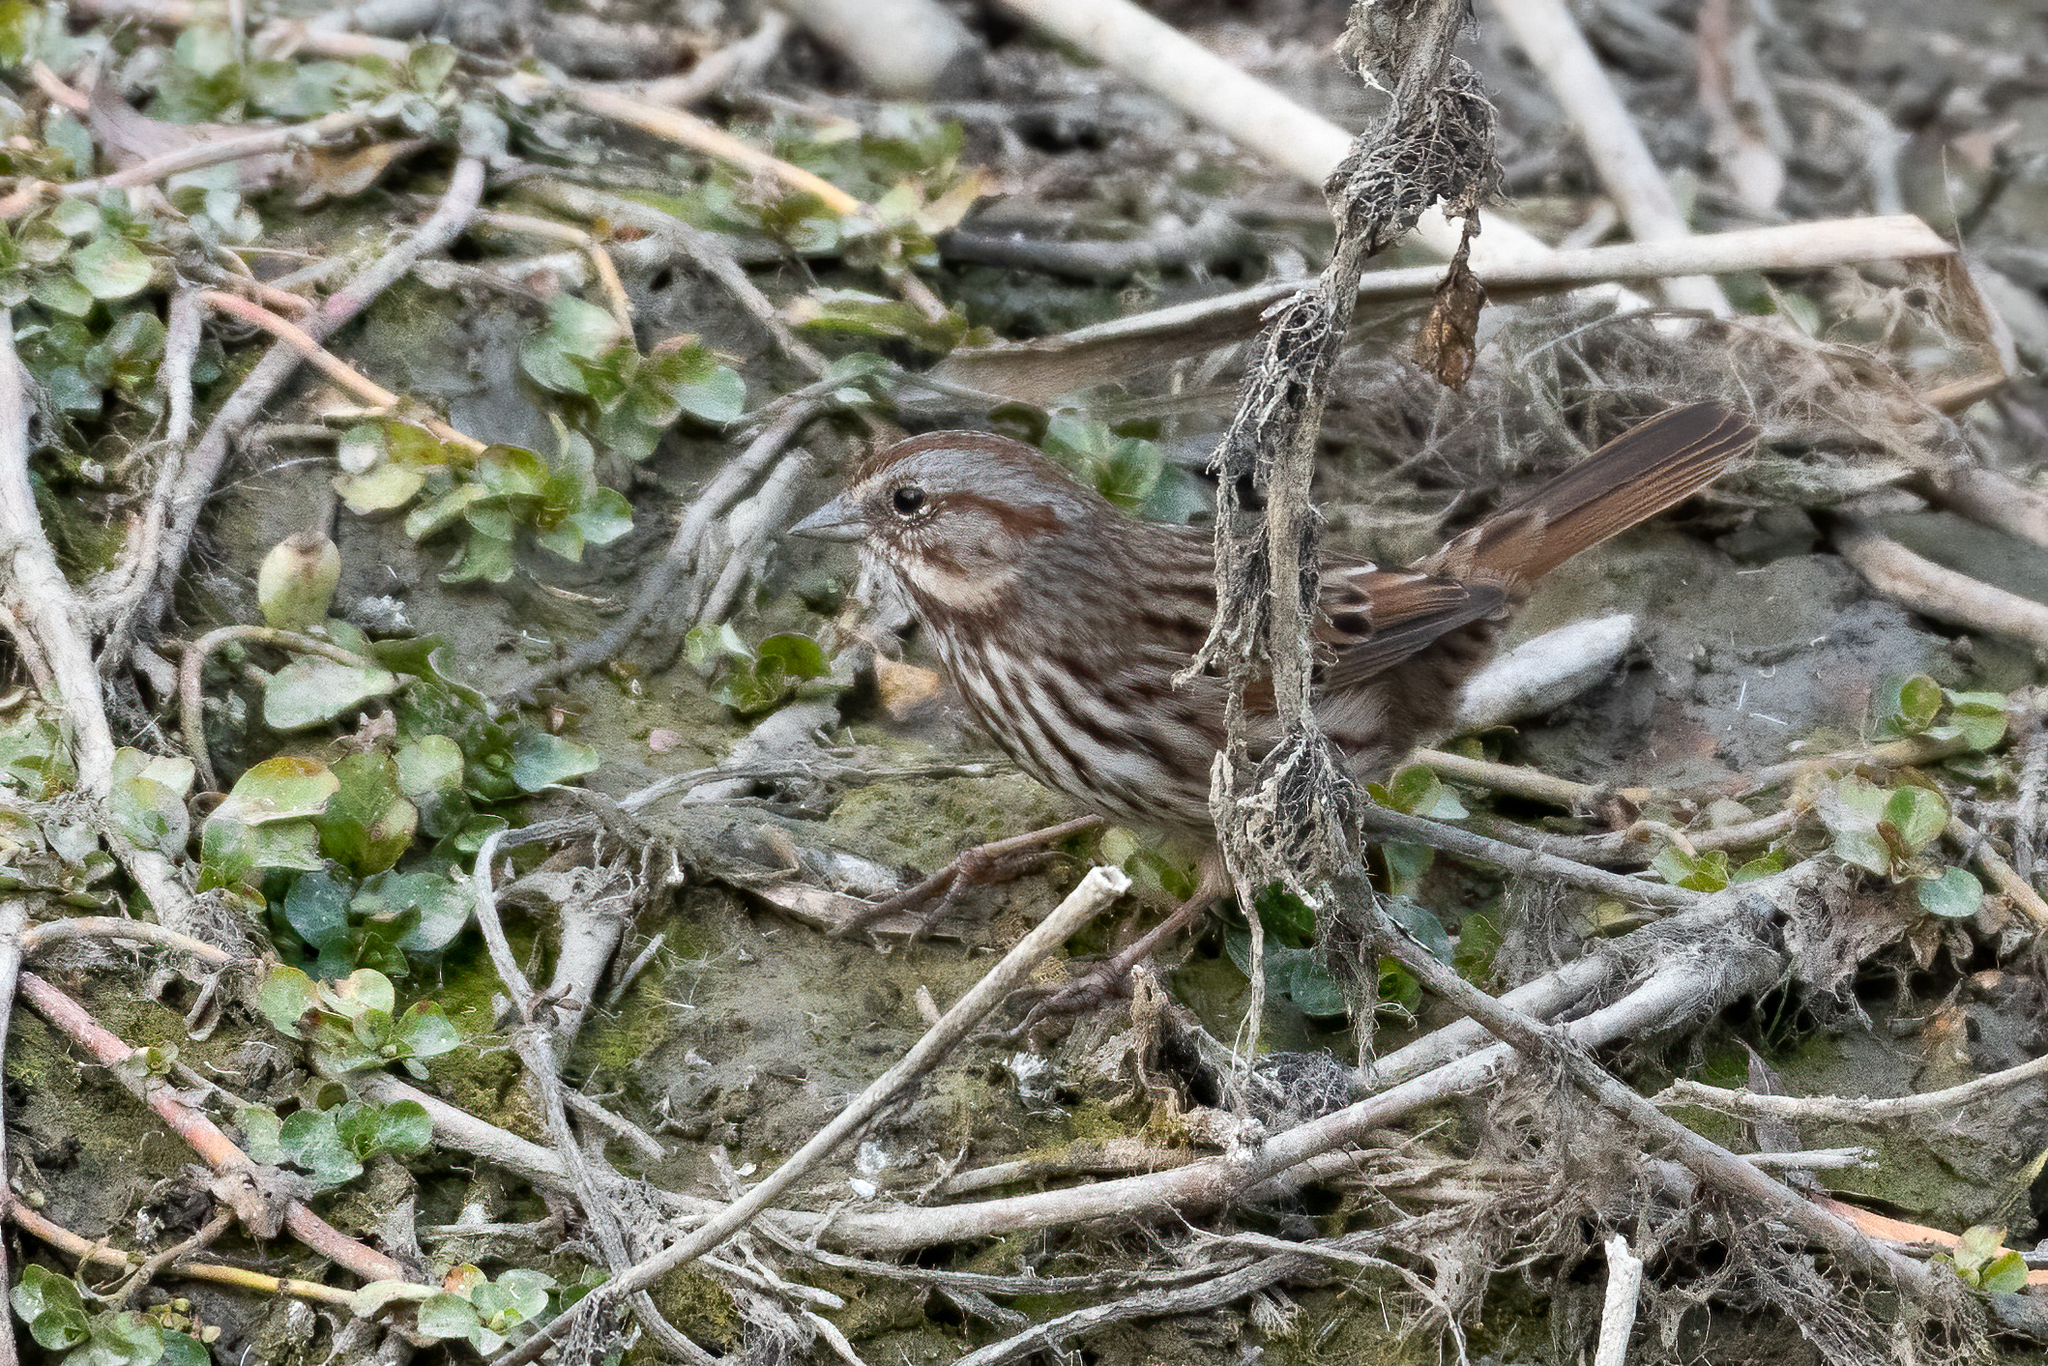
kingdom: Animalia
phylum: Chordata
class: Aves
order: Passeriformes
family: Passerellidae
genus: Melospiza
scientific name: Melospiza melodia
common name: Song sparrow
